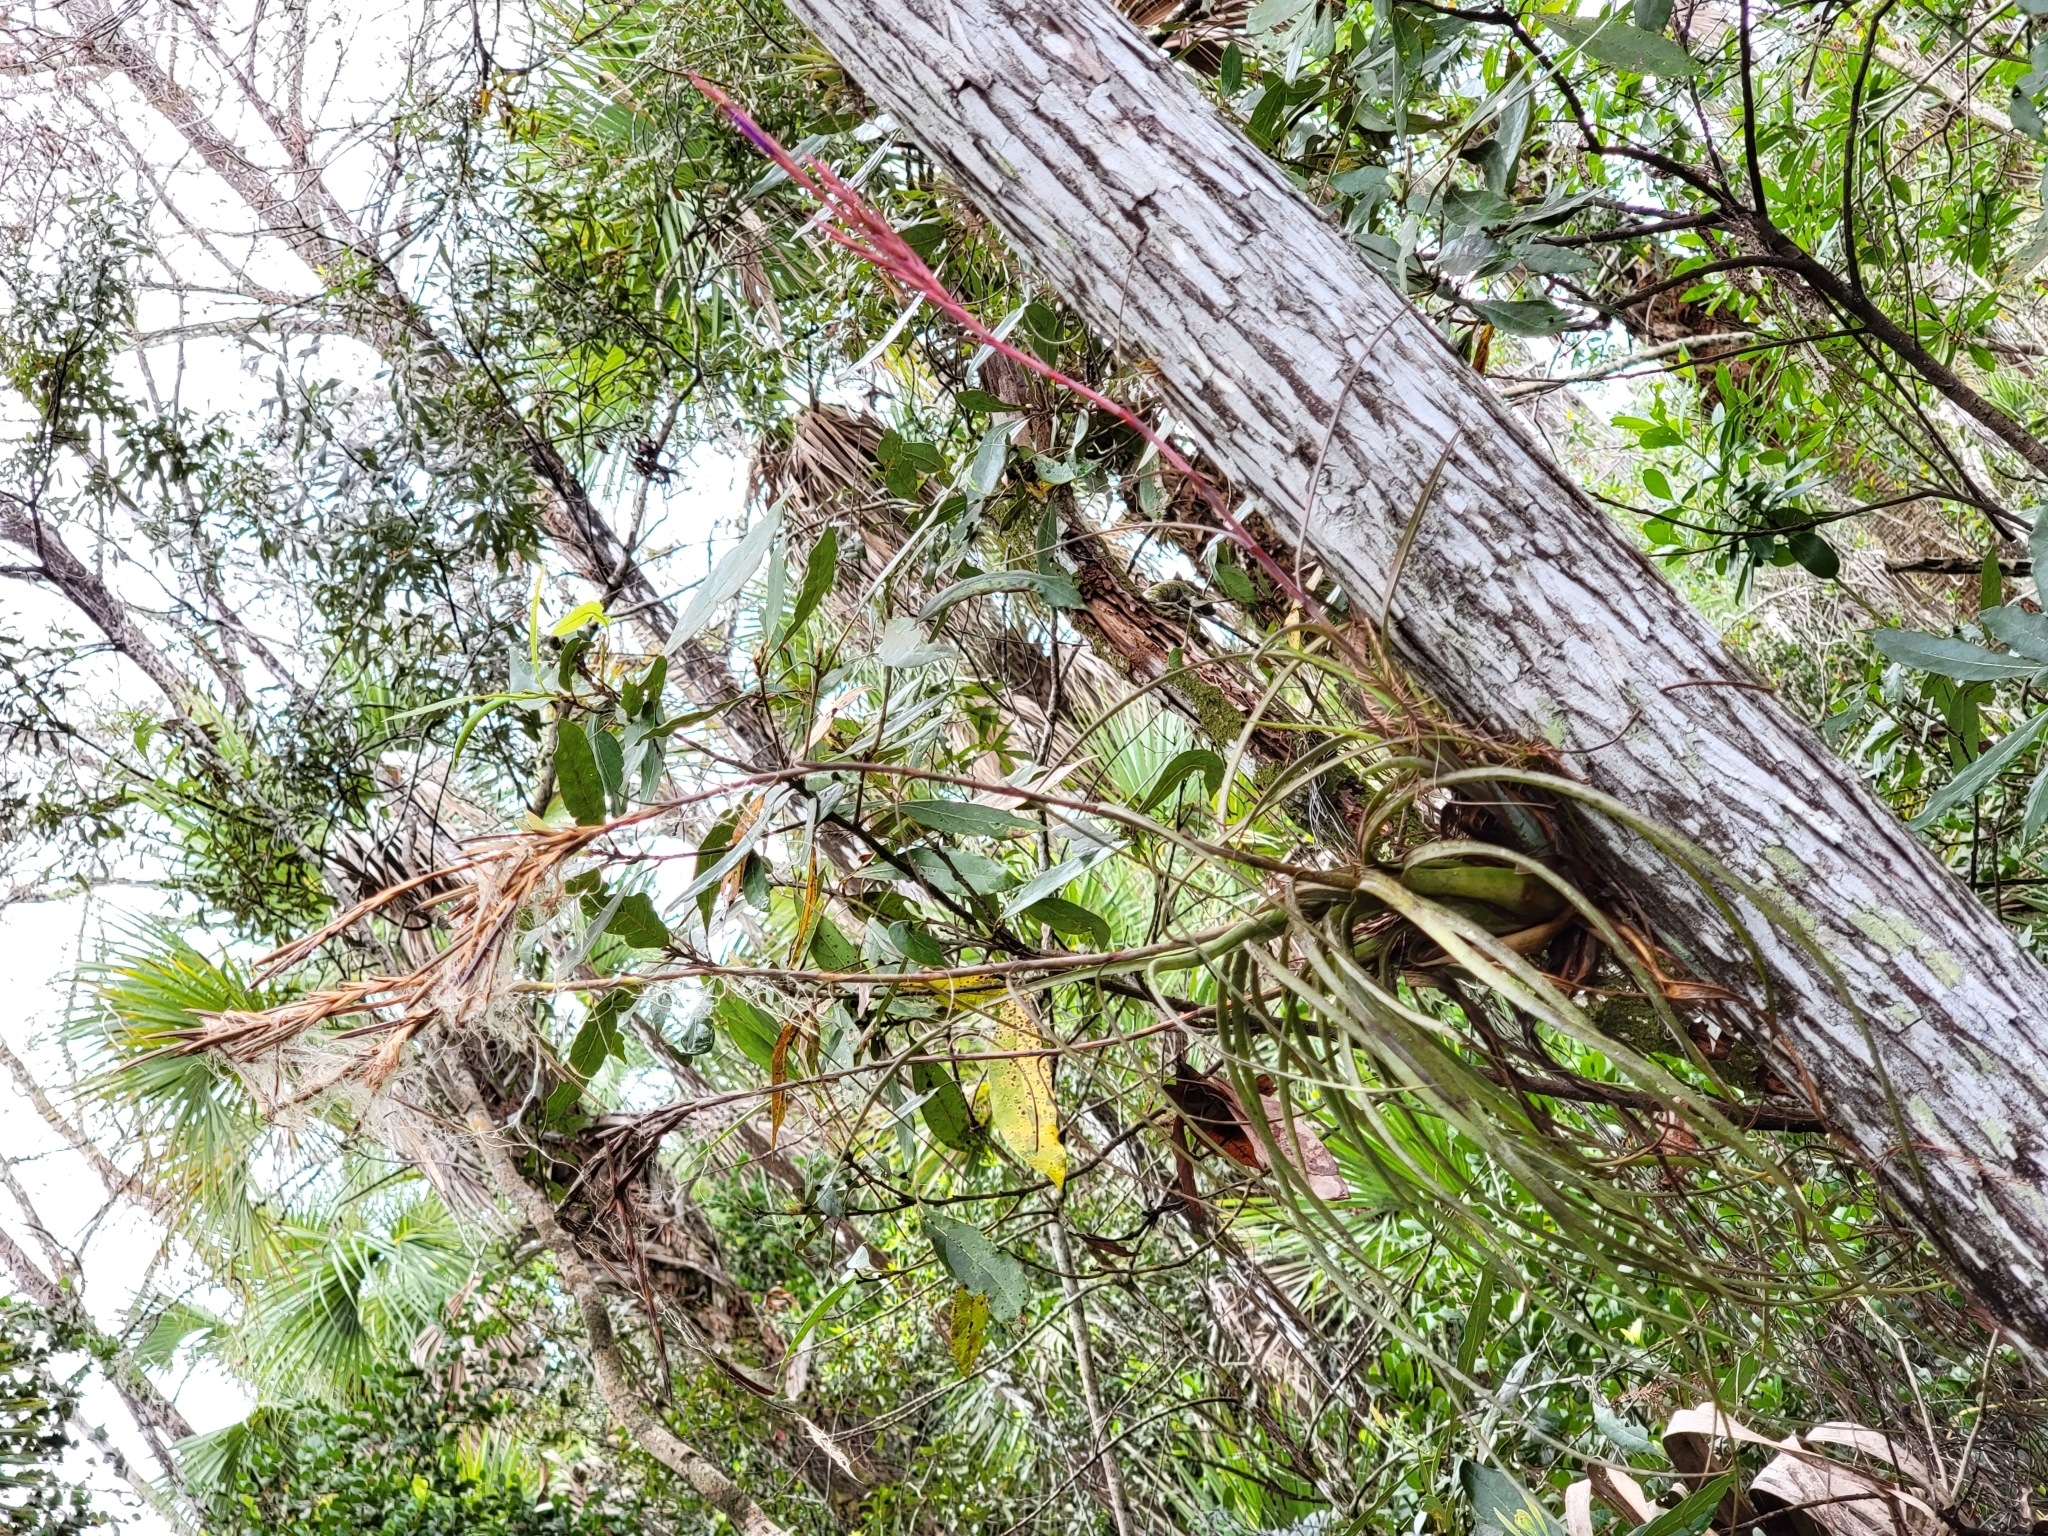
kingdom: Plantae
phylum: Tracheophyta
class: Liliopsida
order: Poales
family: Bromeliaceae
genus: Tillandsia
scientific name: Tillandsia balbisiana
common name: Northern needleleaf
